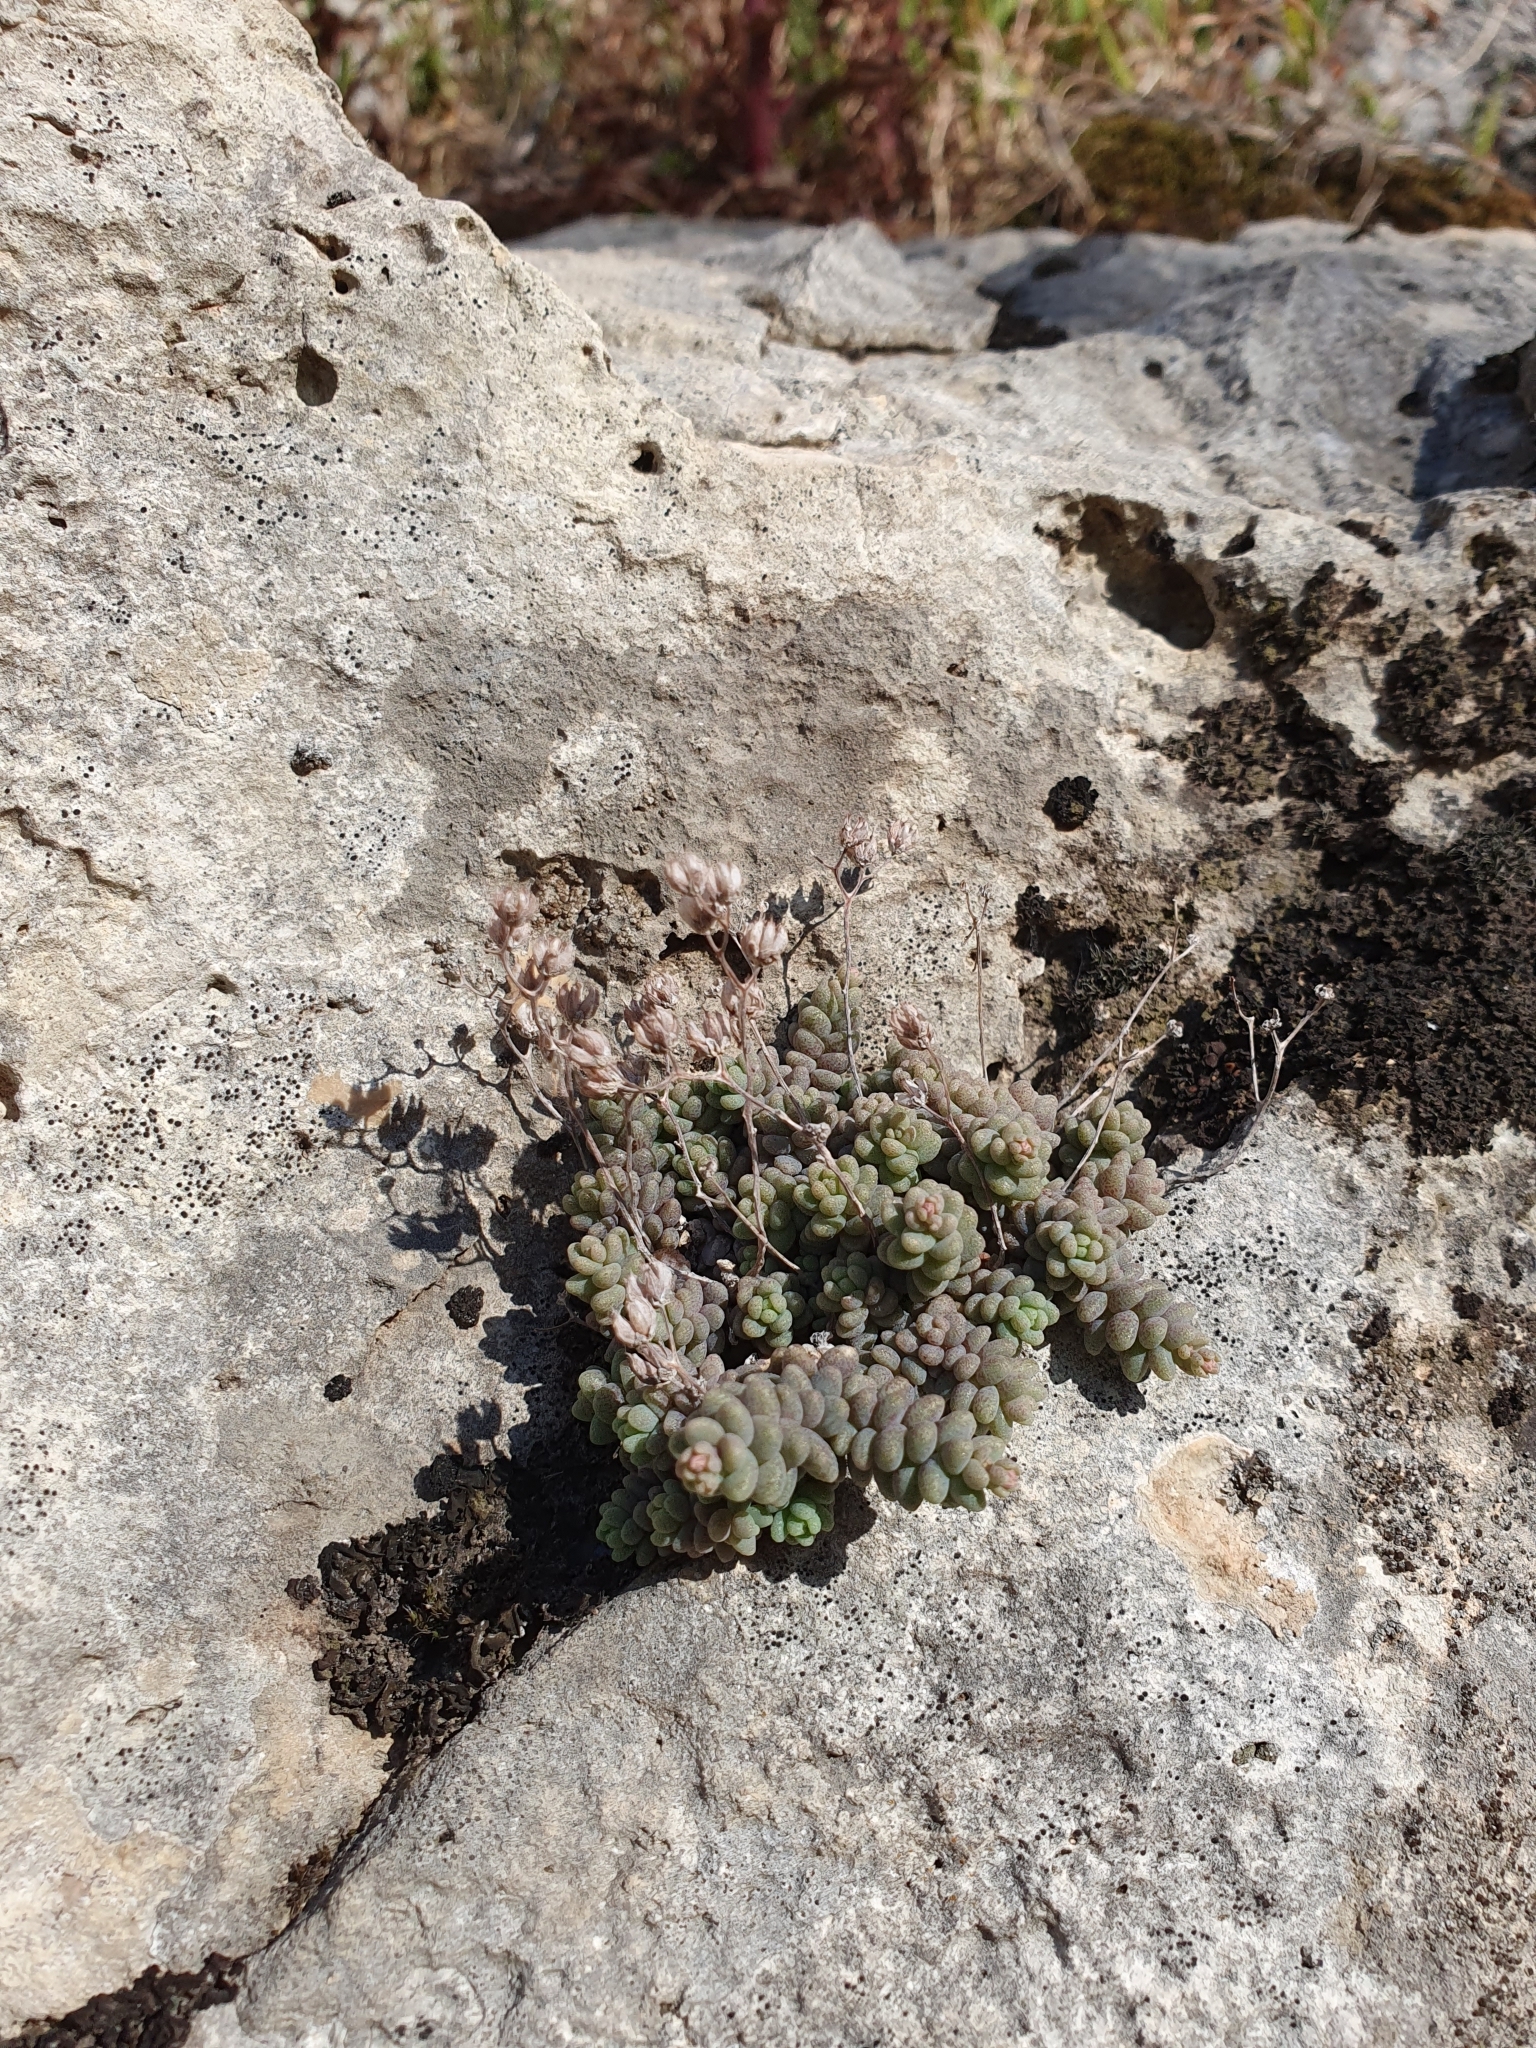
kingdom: Plantae
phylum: Tracheophyta
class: Magnoliopsida
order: Saxifragales
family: Crassulaceae
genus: Sedum
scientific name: Sedum dasyphyllum
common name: Thick-leaf stonecrop
